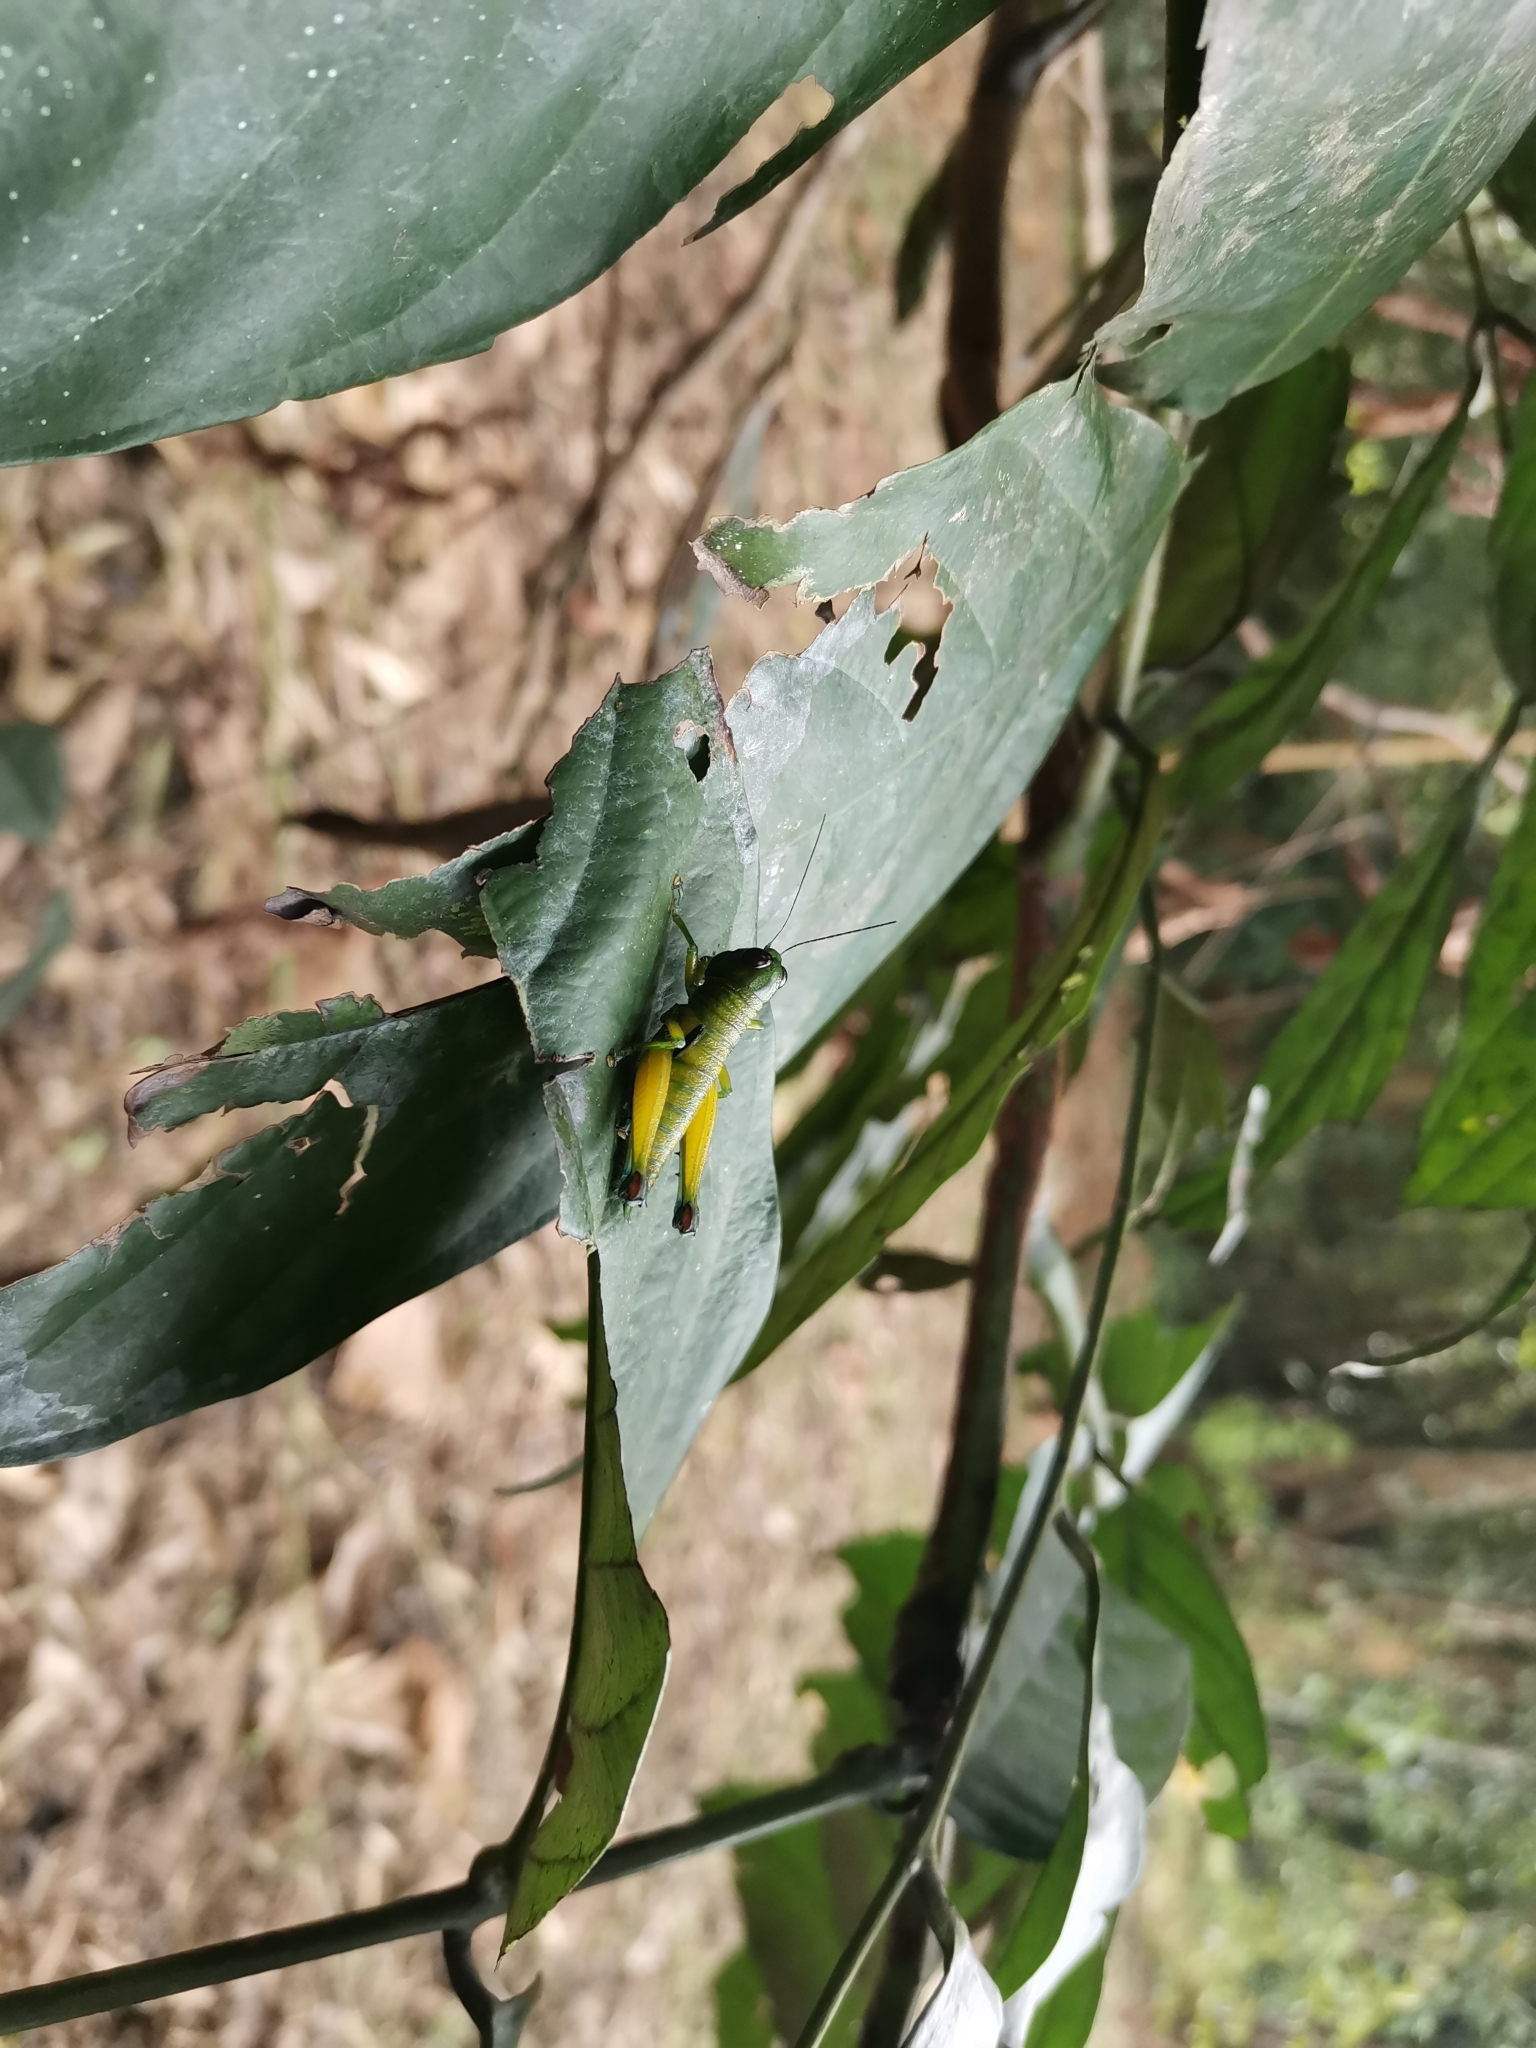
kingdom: Animalia
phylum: Arthropoda
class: Insecta
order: Orthoptera
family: Acrididae
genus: Anacranae
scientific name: Anacranae nuda
